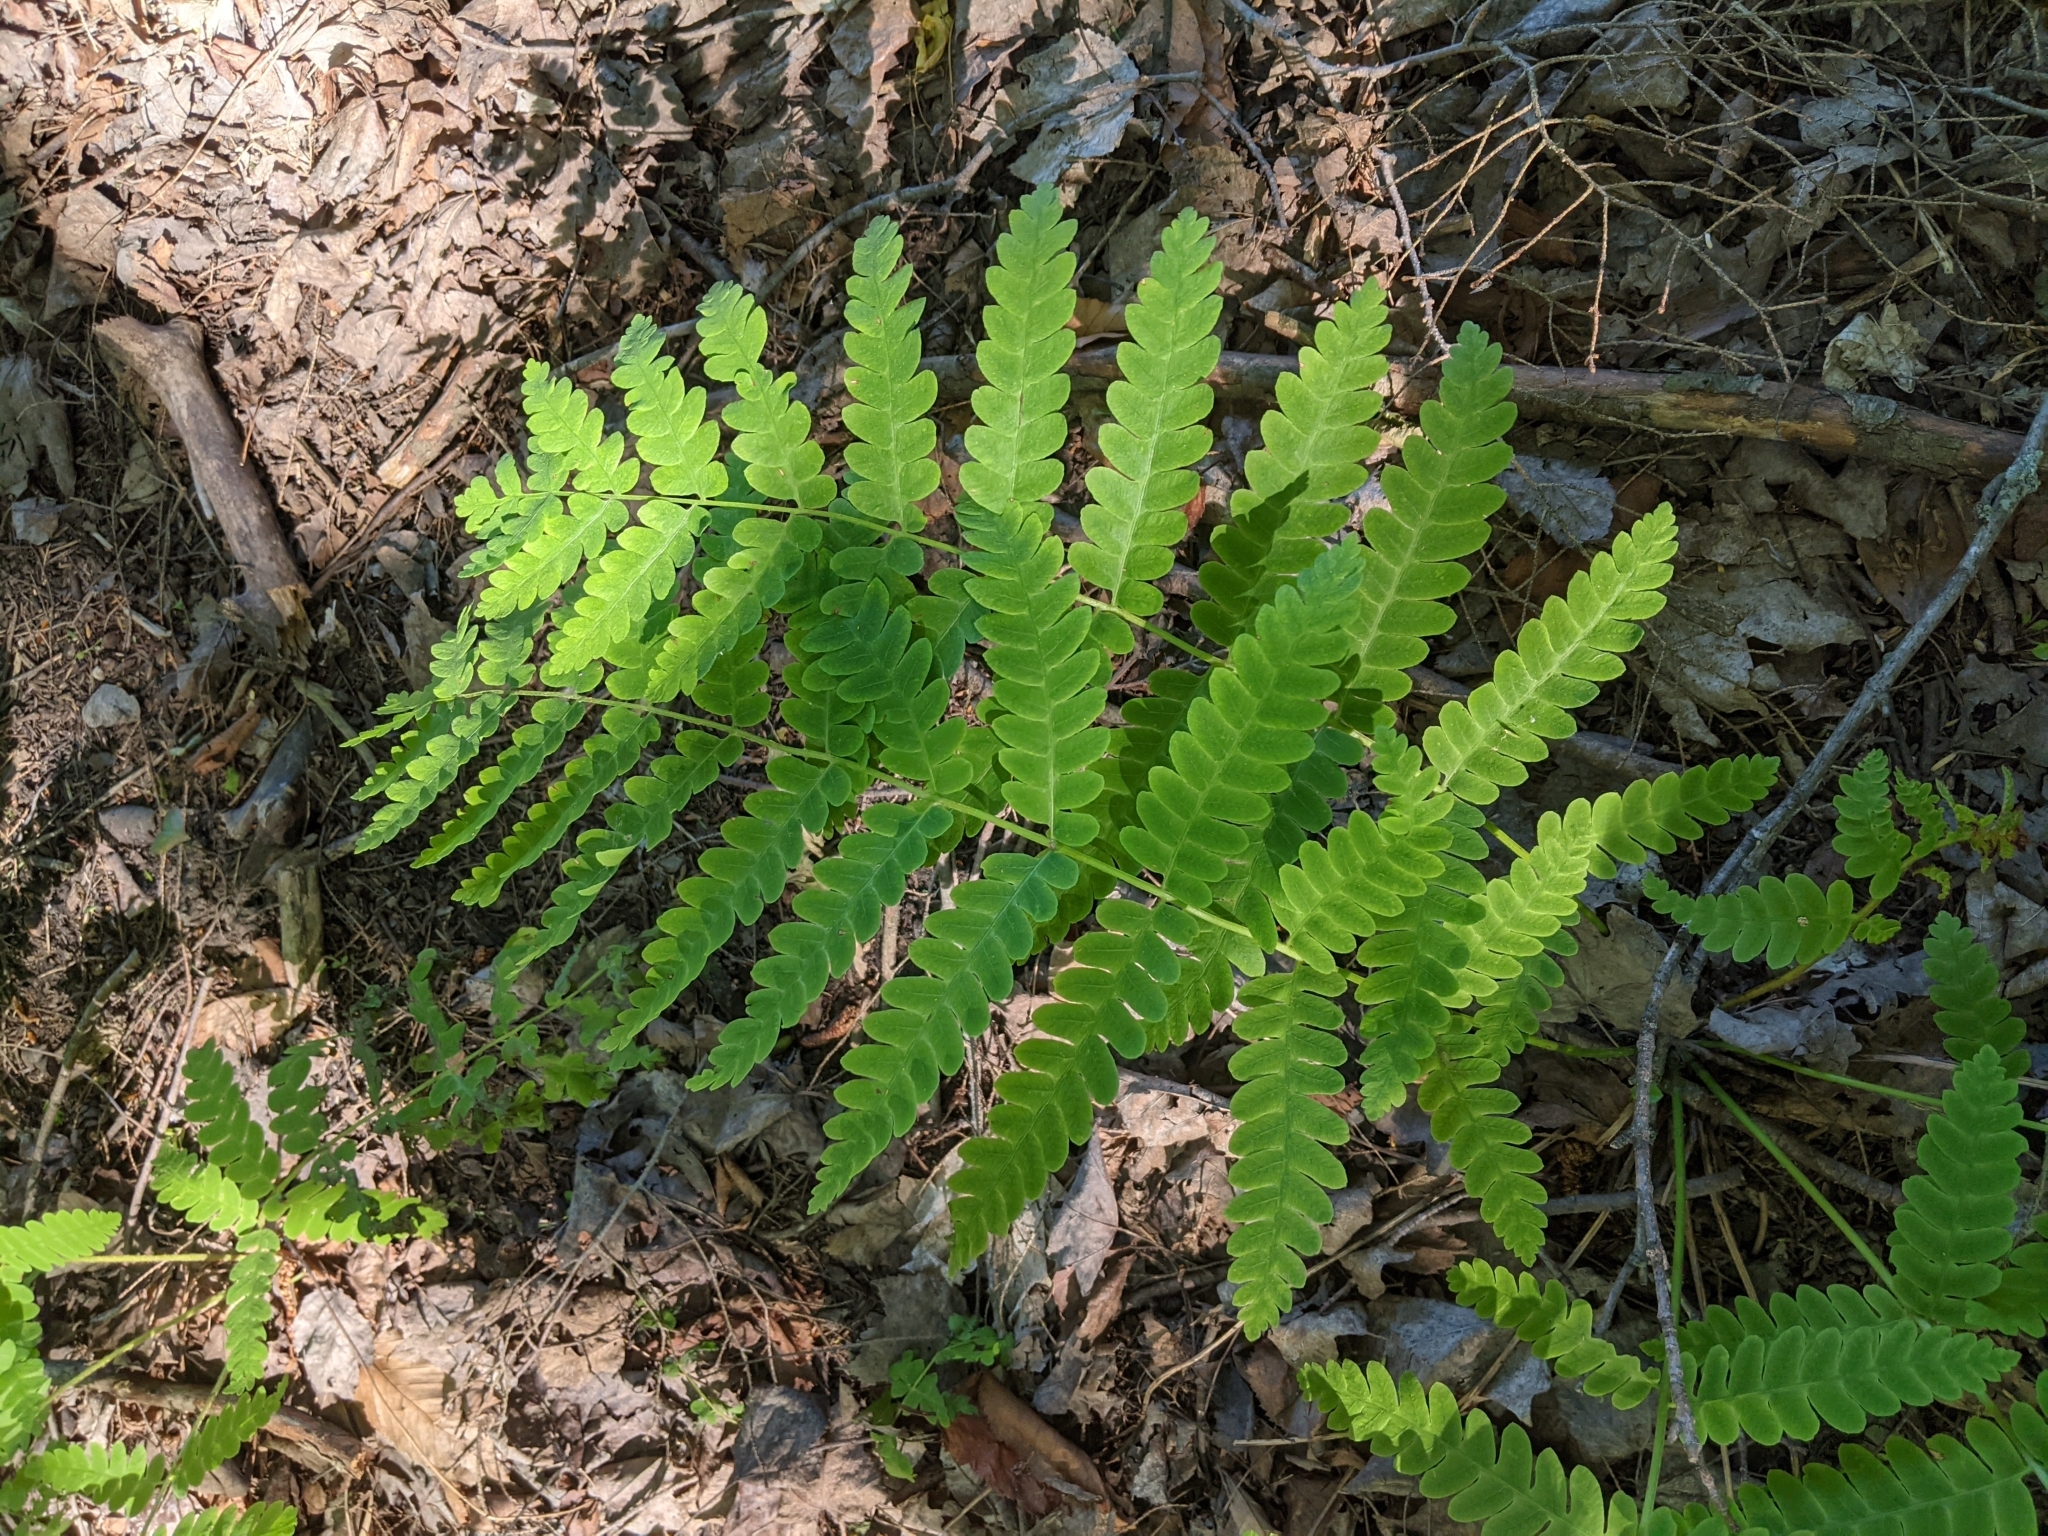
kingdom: Plantae
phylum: Tracheophyta
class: Polypodiopsida
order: Osmundales
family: Osmundaceae
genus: Claytosmunda
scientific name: Claytosmunda claytoniana
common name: Clayton's fern
